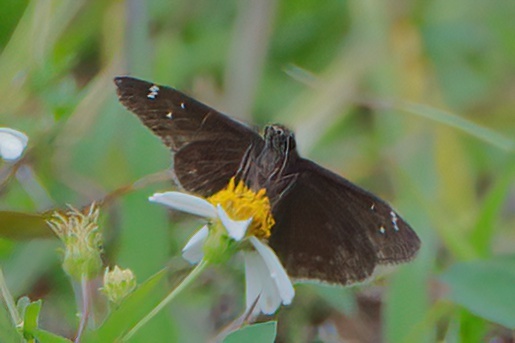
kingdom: Animalia
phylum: Arthropoda
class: Insecta
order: Lepidoptera
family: Hesperiidae
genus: Erynnis
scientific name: Erynnis horatius
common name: Horace's duskywing
